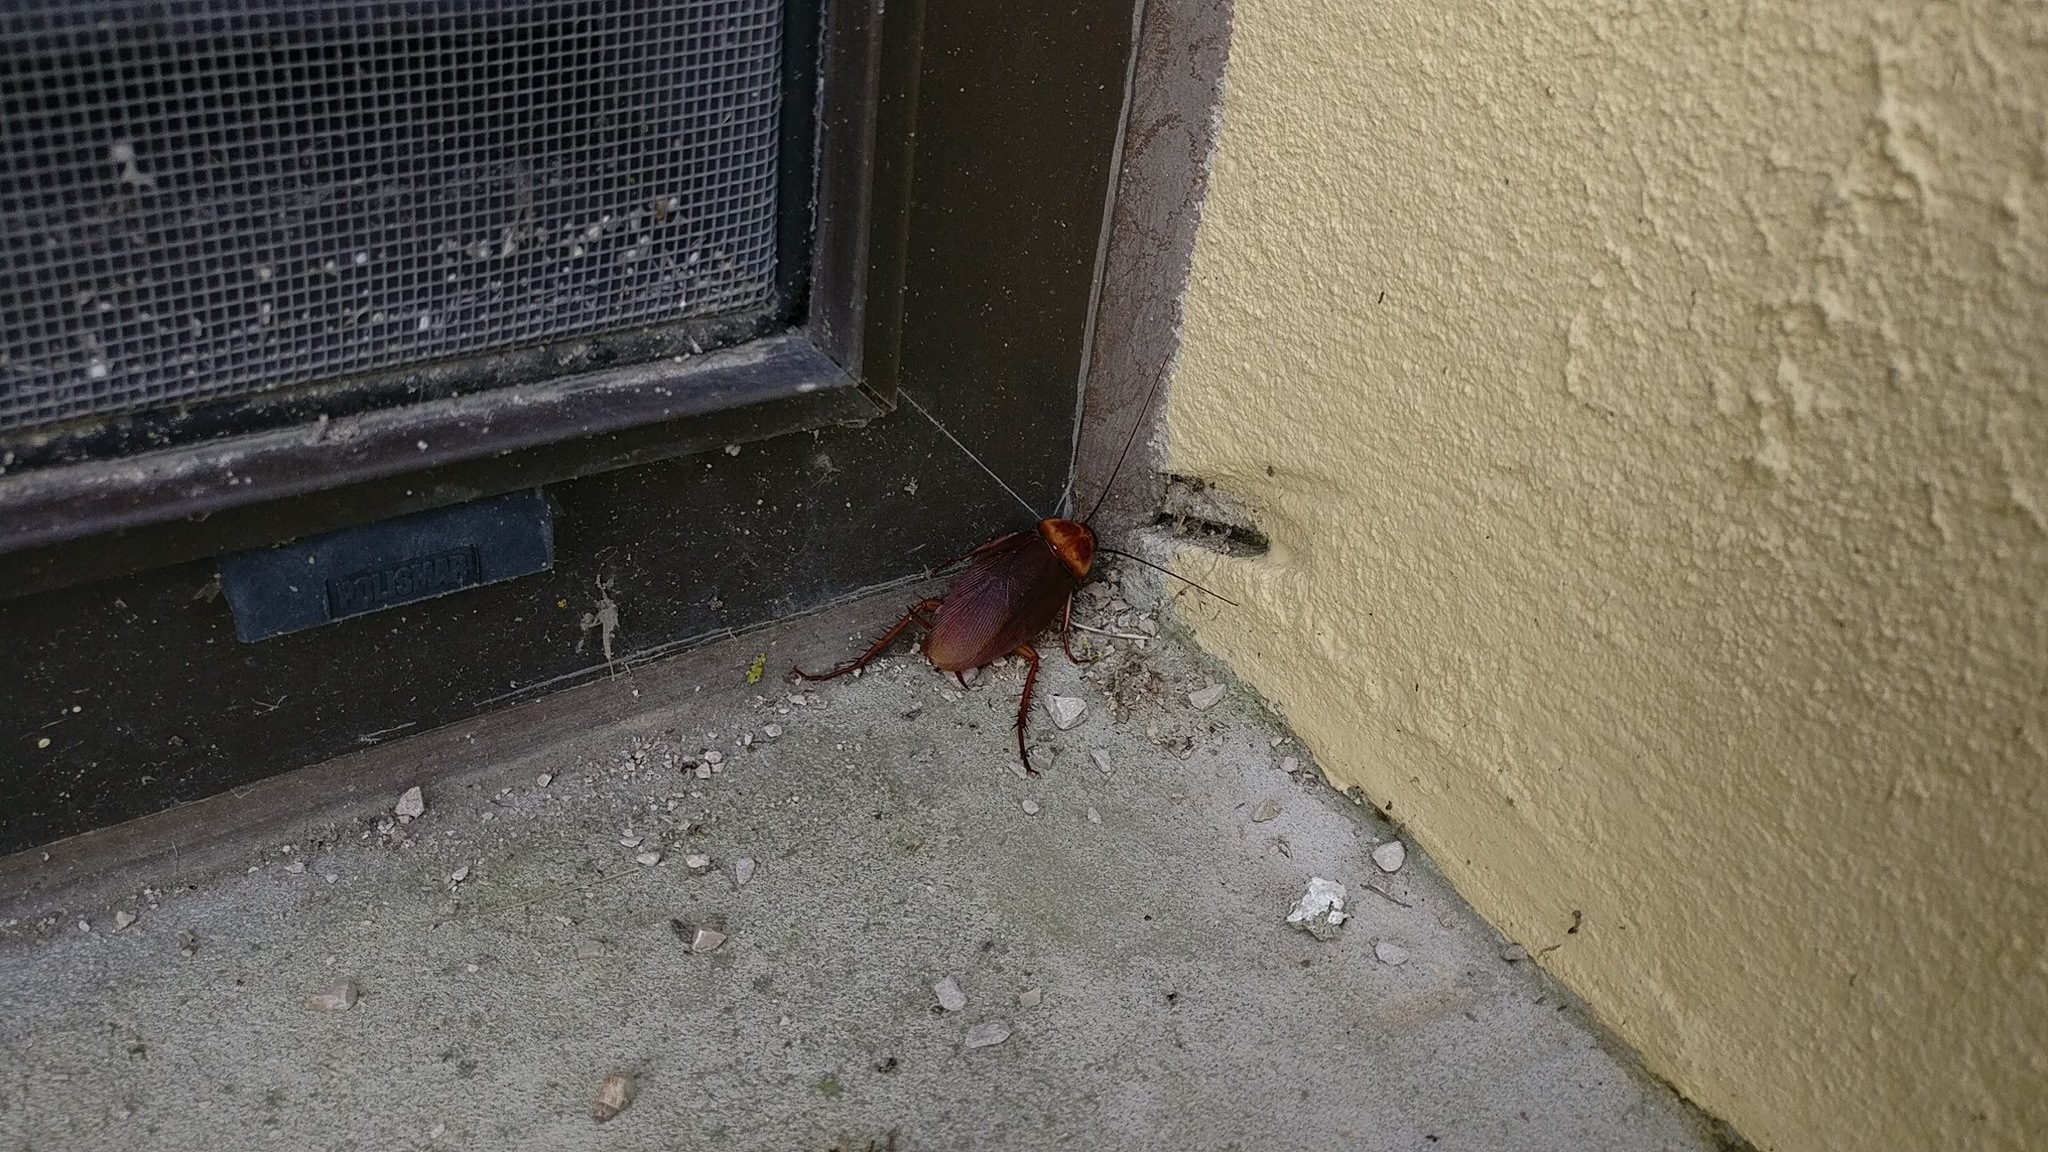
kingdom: Animalia
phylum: Arthropoda
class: Insecta
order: Blattodea
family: Blattidae
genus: Periplaneta
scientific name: Periplaneta americana
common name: American cockroach
